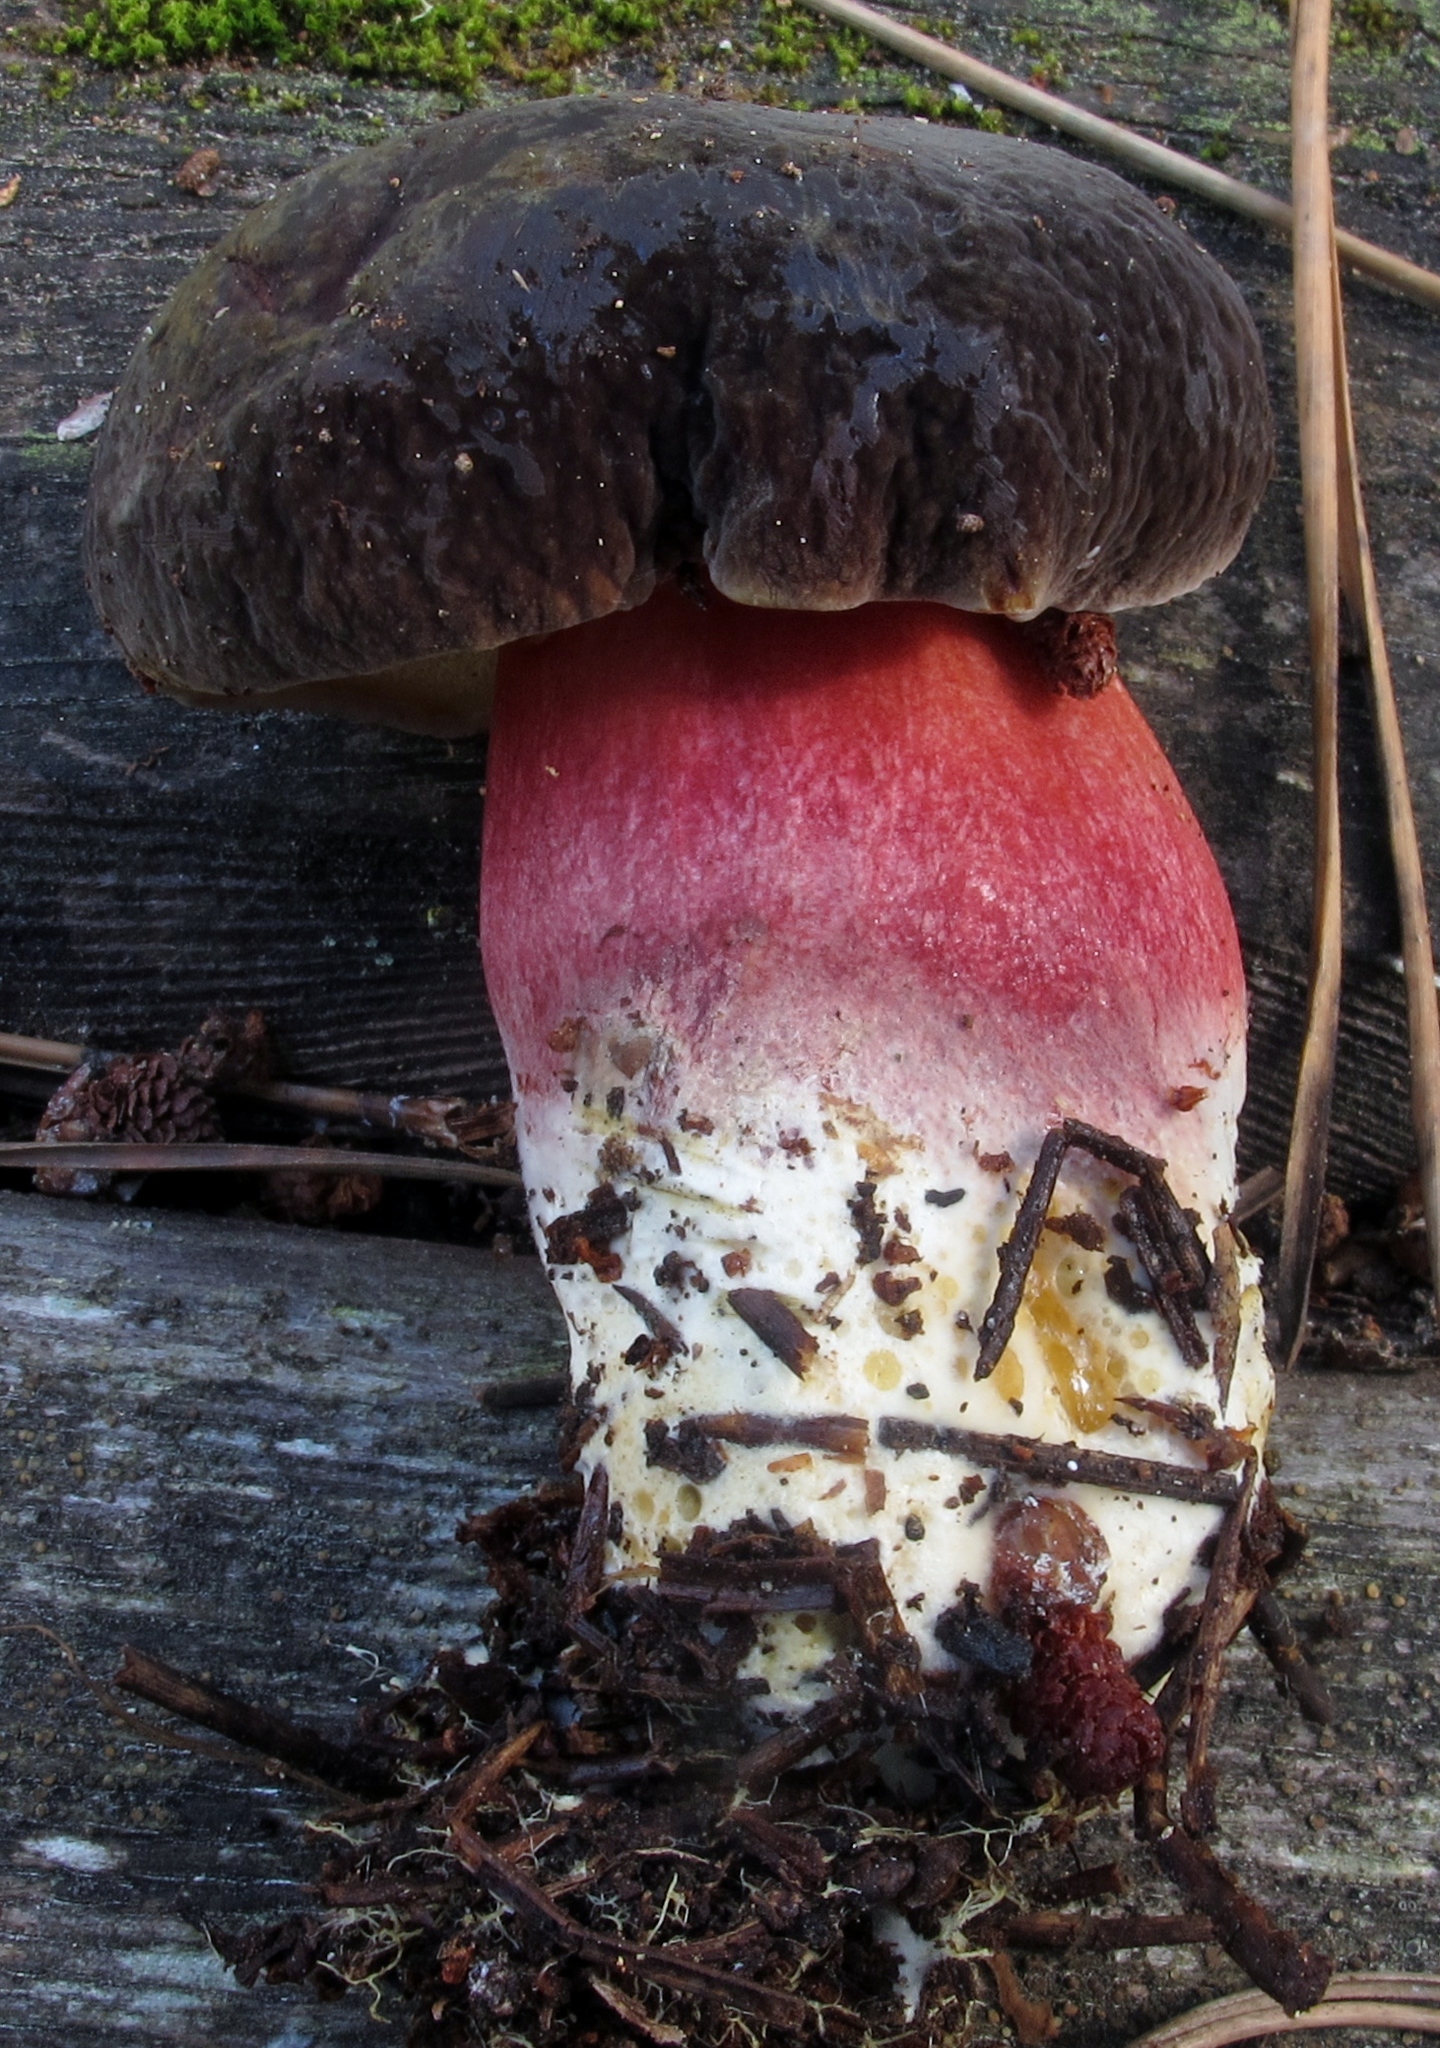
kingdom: Fungi
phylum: Basidiomycota
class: Agaricomycetes
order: Boletales
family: Boletaceae
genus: Xerocomellus
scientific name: Xerocomellus atropurpureus
